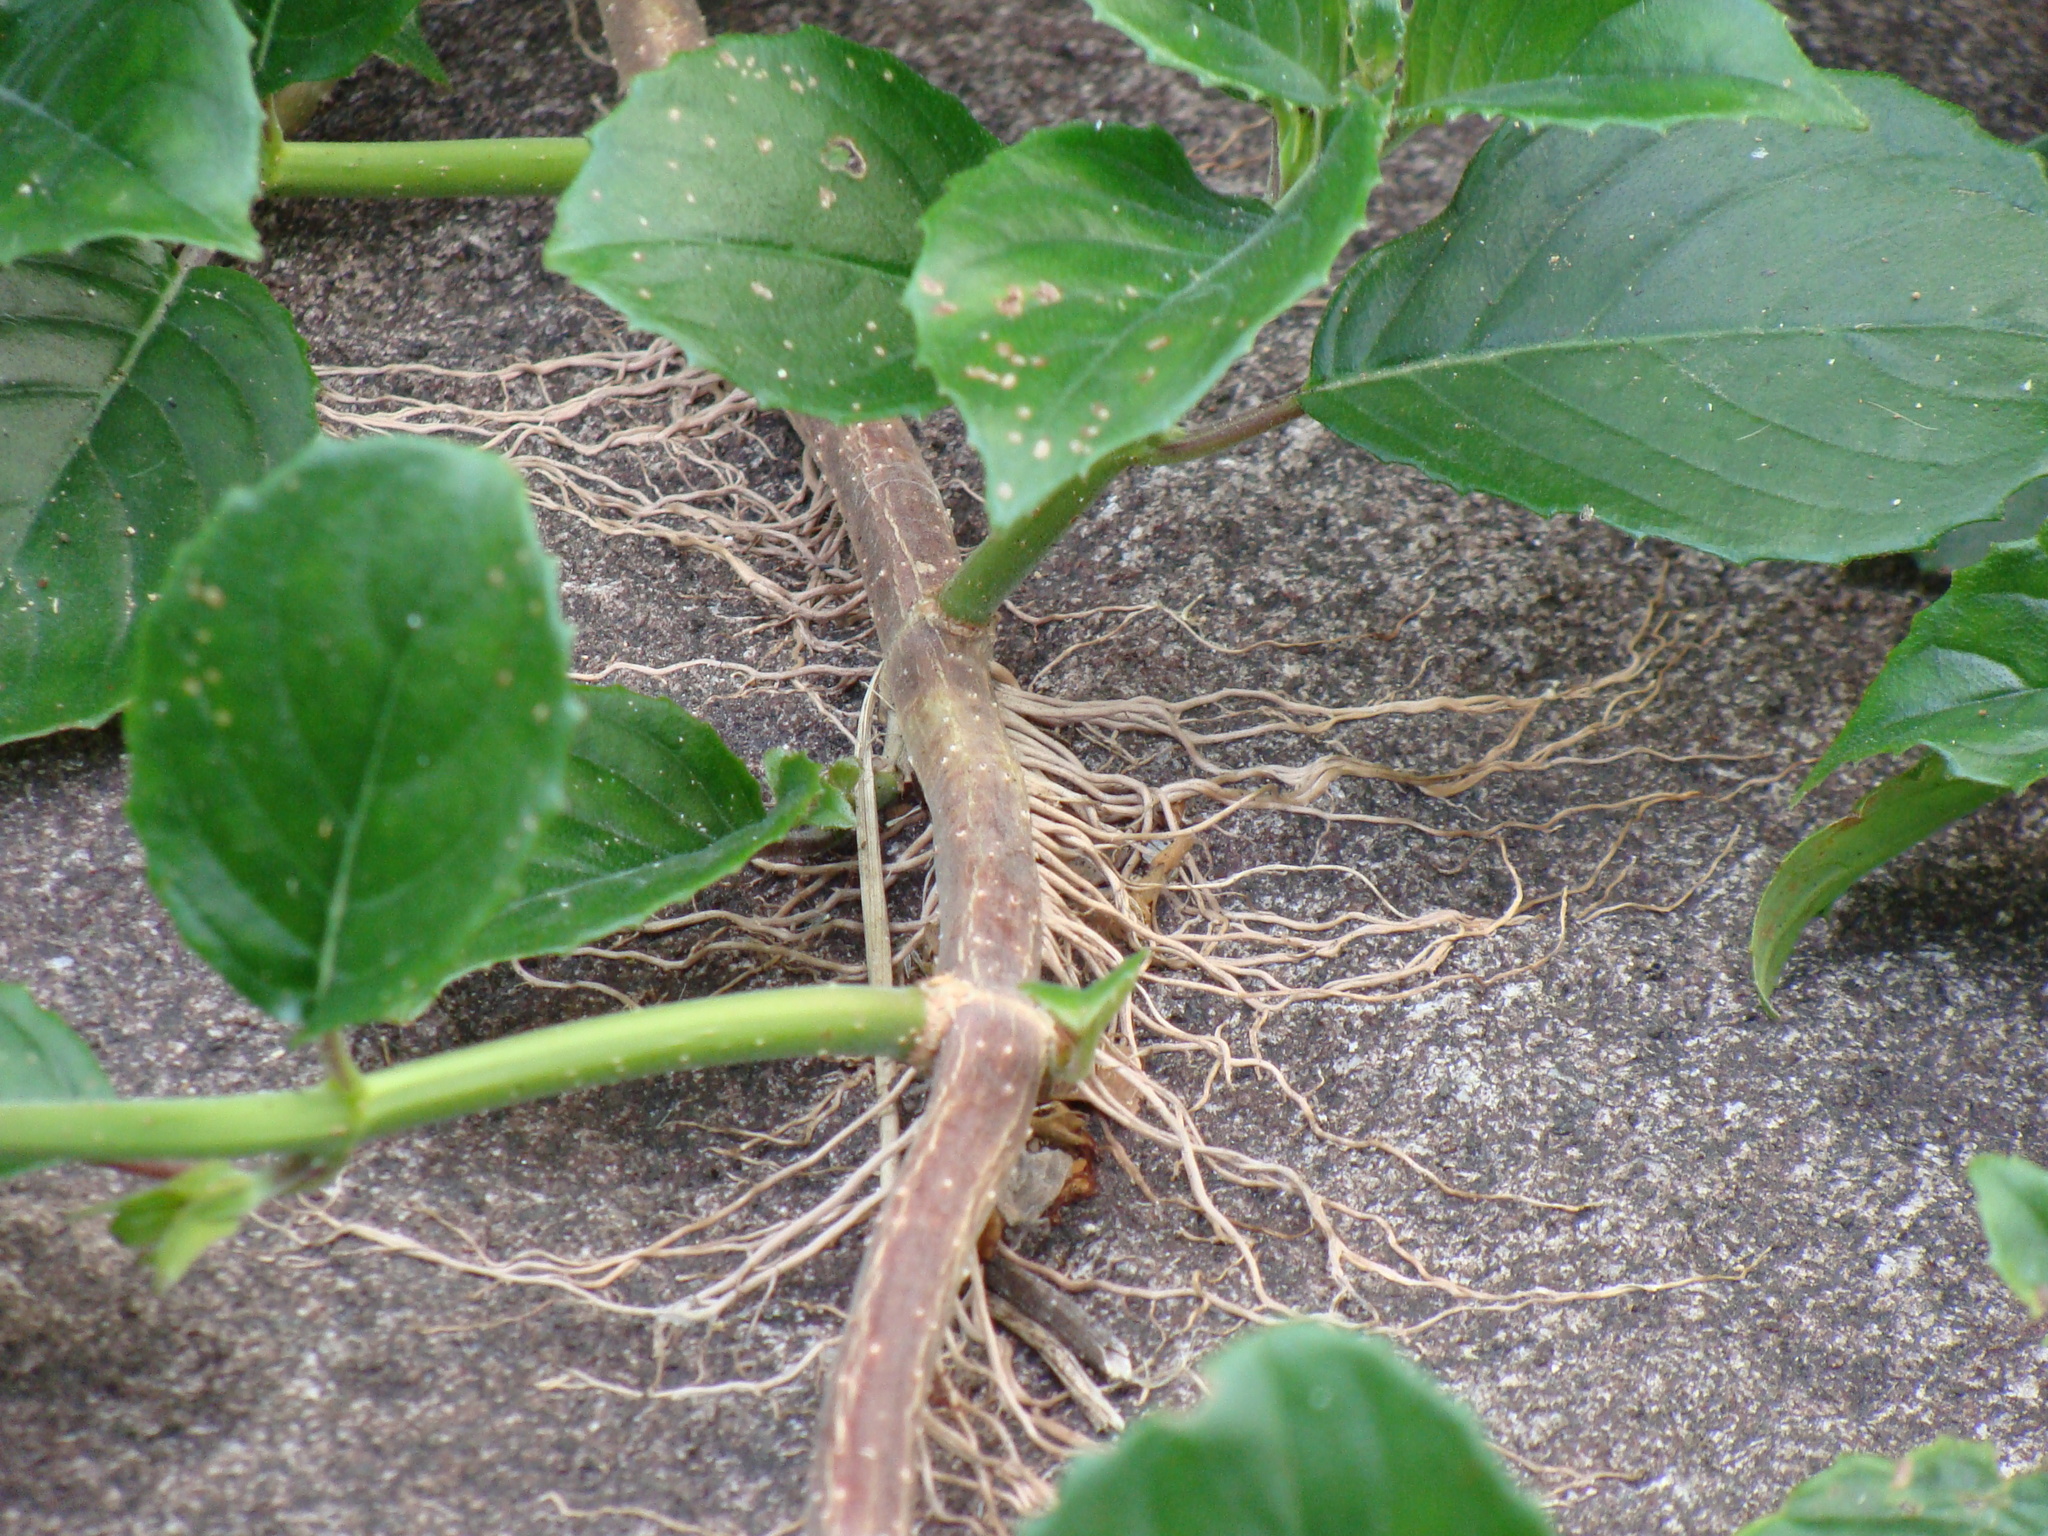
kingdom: Plantae
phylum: Tracheophyta
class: Magnoliopsida
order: Lamiales
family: Gesneriaceae
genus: Drymonia
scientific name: Drymonia serrulata
